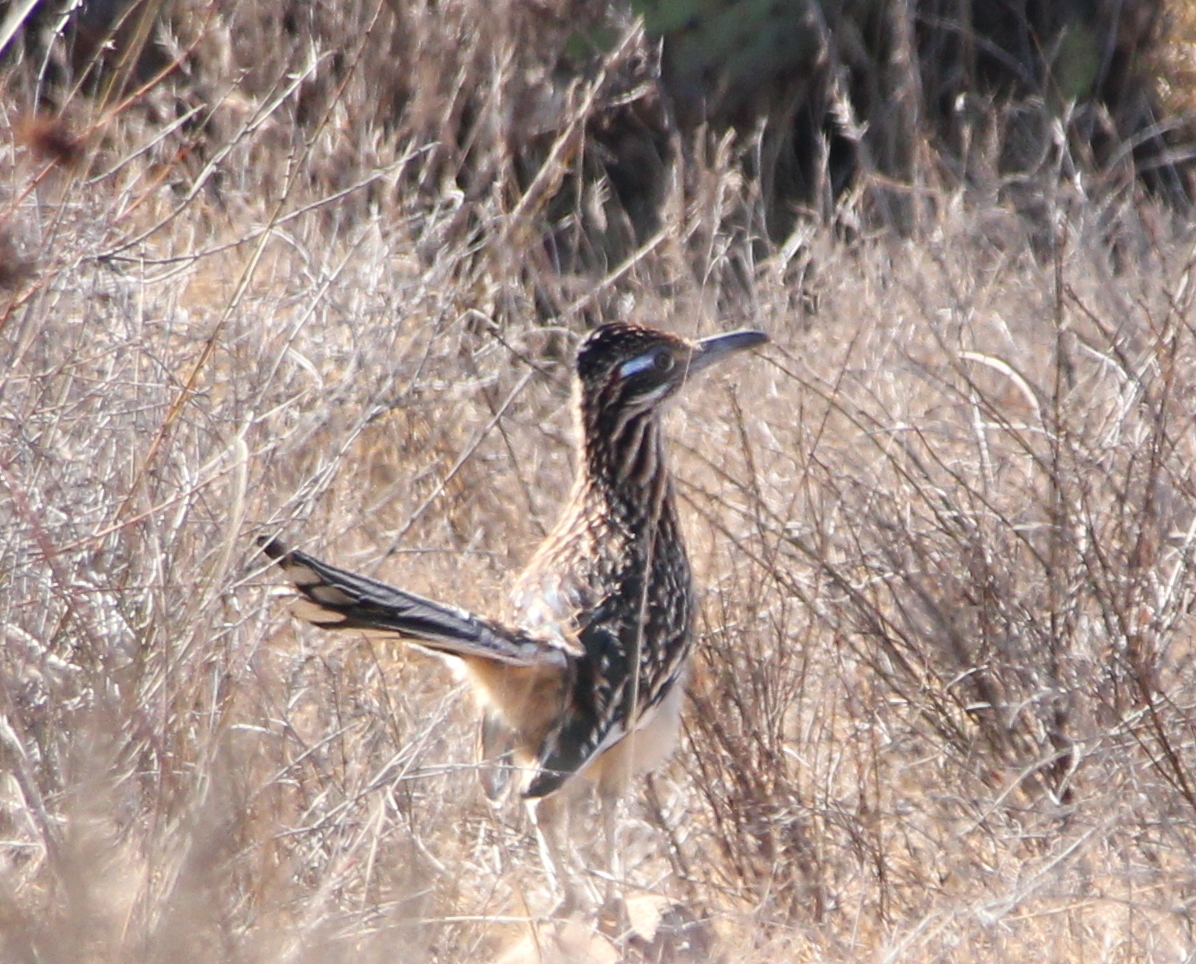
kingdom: Animalia
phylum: Chordata
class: Aves
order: Cuculiformes
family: Cuculidae
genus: Geococcyx
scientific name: Geococcyx californianus
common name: Greater roadrunner
